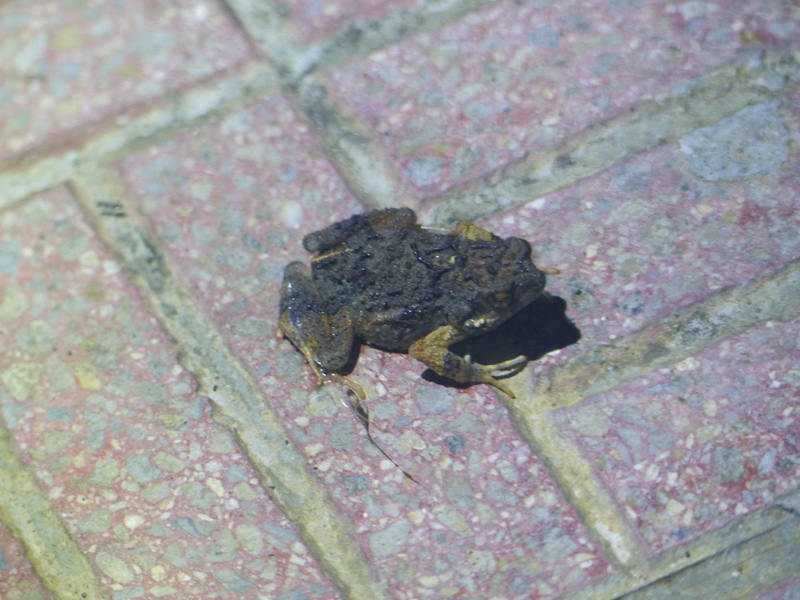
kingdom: Animalia
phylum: Chordata
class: Amphibia
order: Anura
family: Leptodactylidae
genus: Engystomops
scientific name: Engystomops pustulosus
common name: Tungara frog
